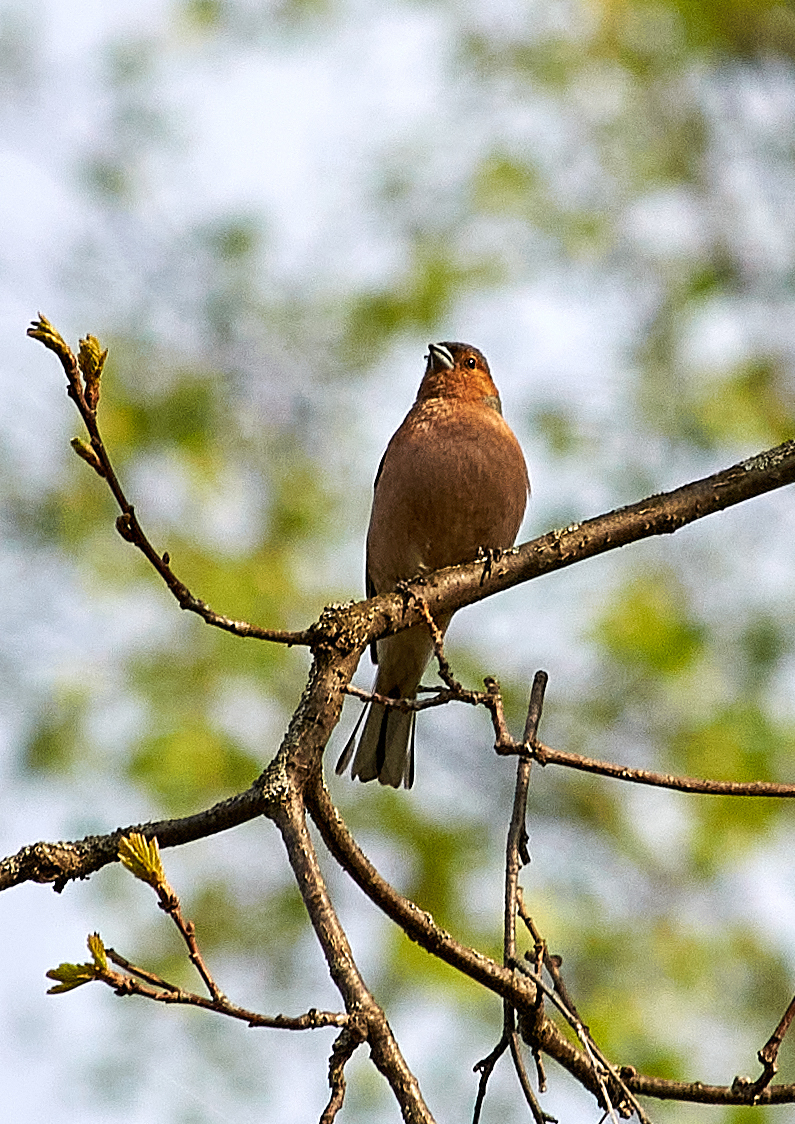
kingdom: Animalia
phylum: Chordata
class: Aves
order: Passeriformes
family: Fringillidae
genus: Fringilla
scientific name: Fringilla coelebs
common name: Common chaffinch
